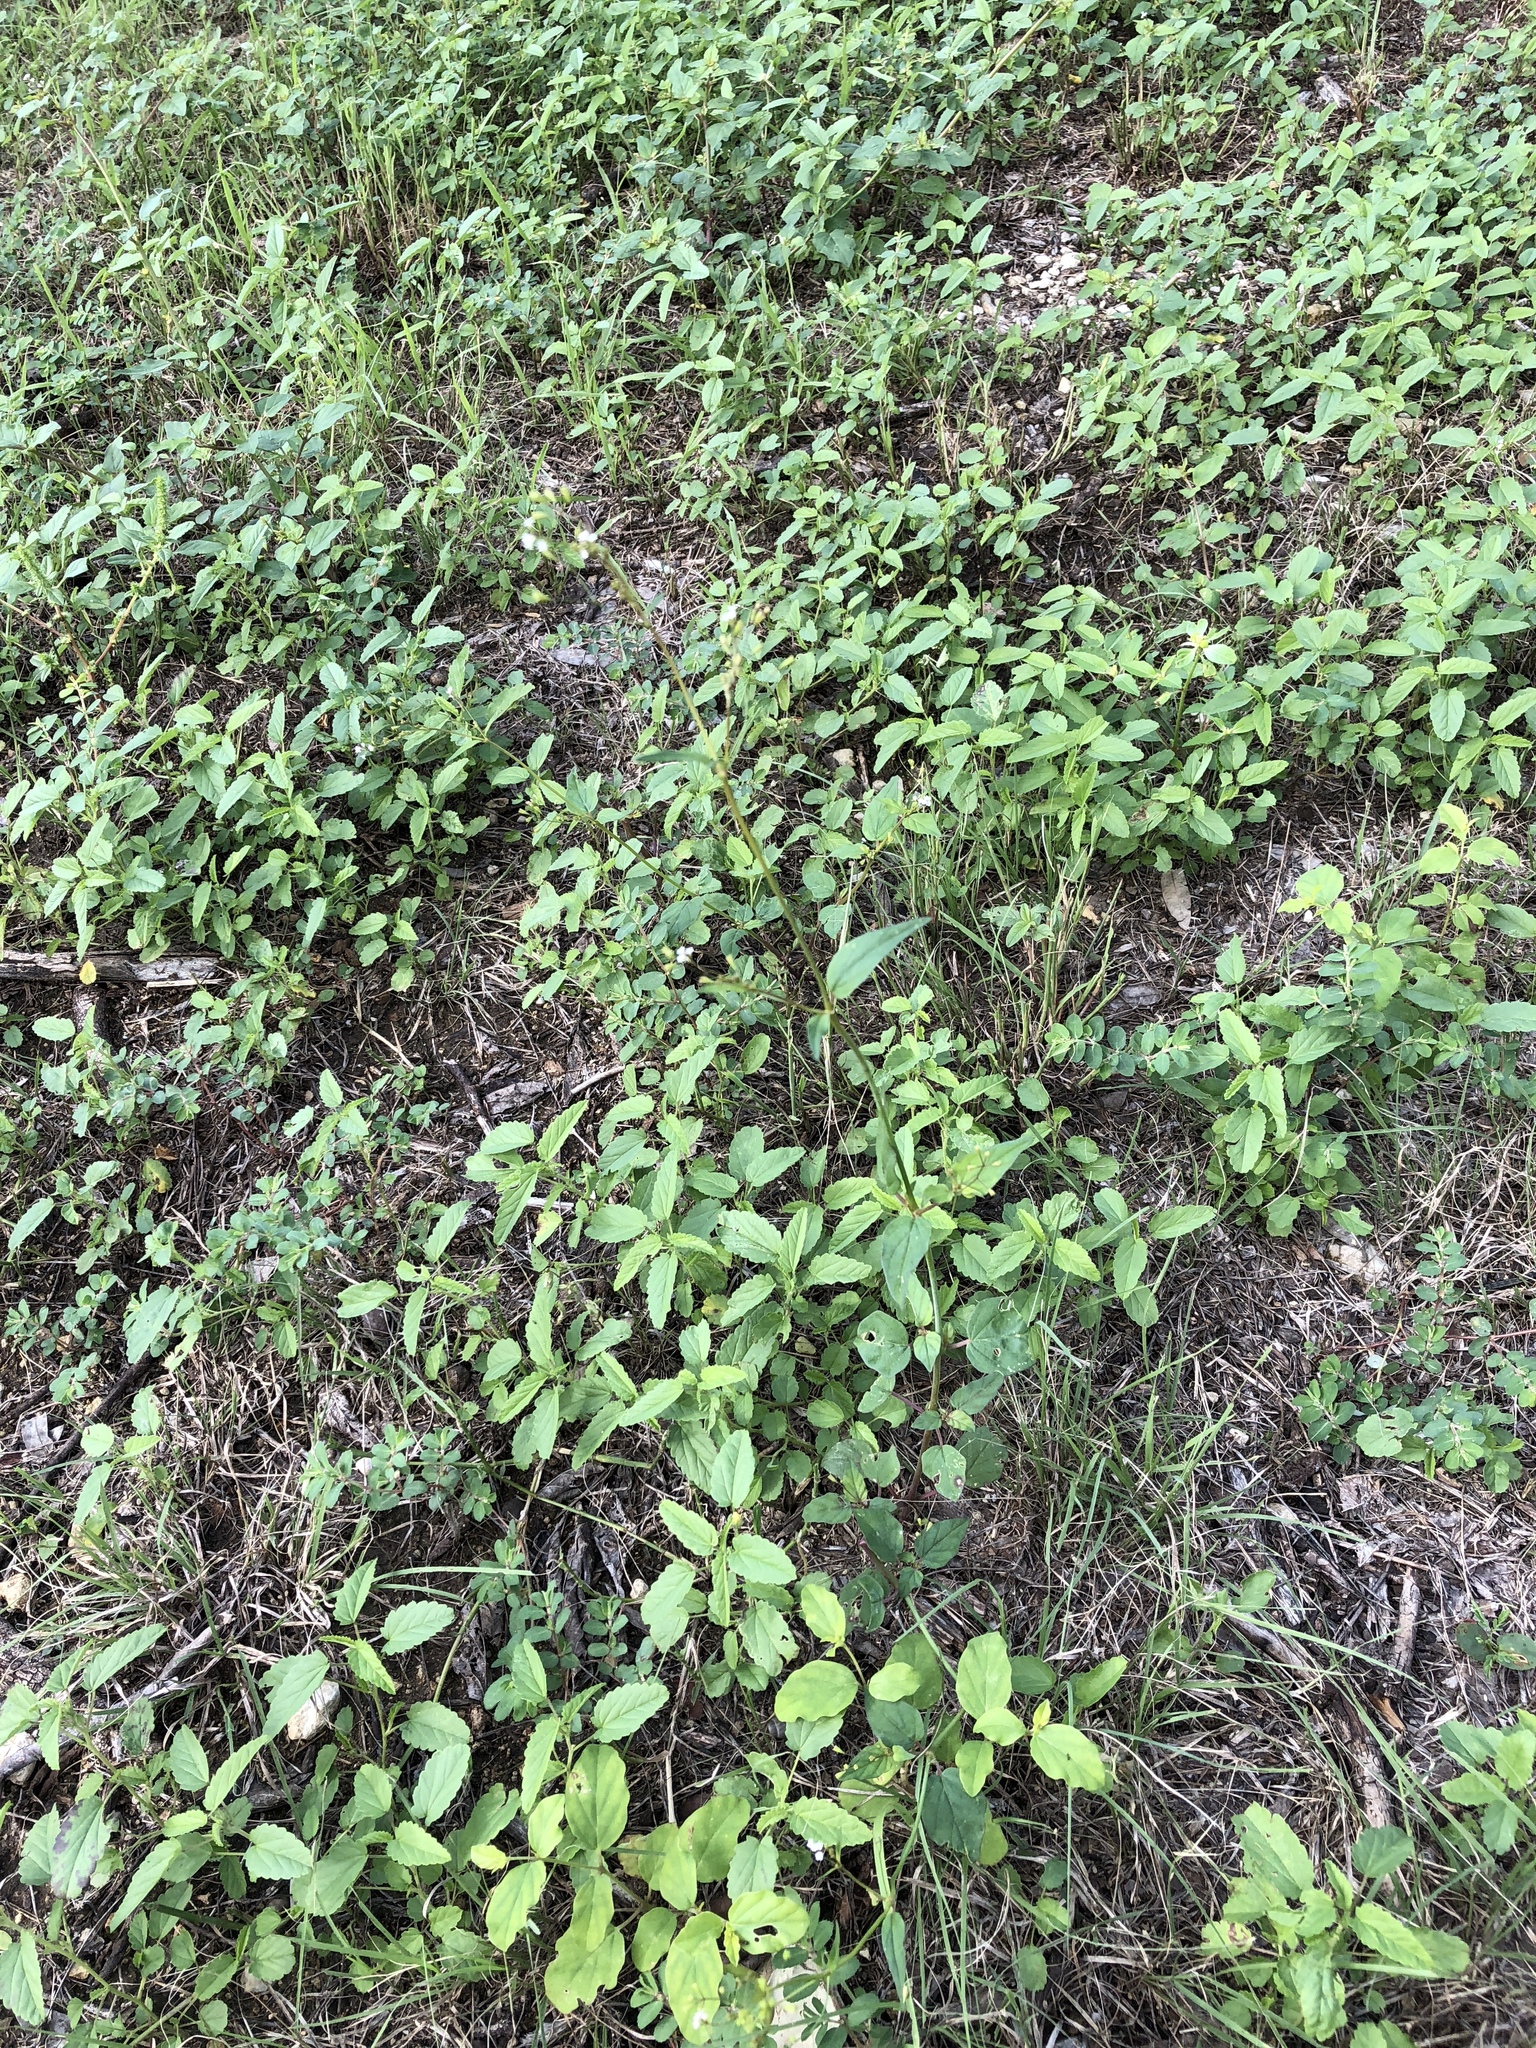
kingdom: Plantae
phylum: Tracheophyta
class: Magnoliopsida
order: Caryophyllales
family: Nyctaginaceae
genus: Boerhavia
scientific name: Boerhavia erecta
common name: Erect spiderling
